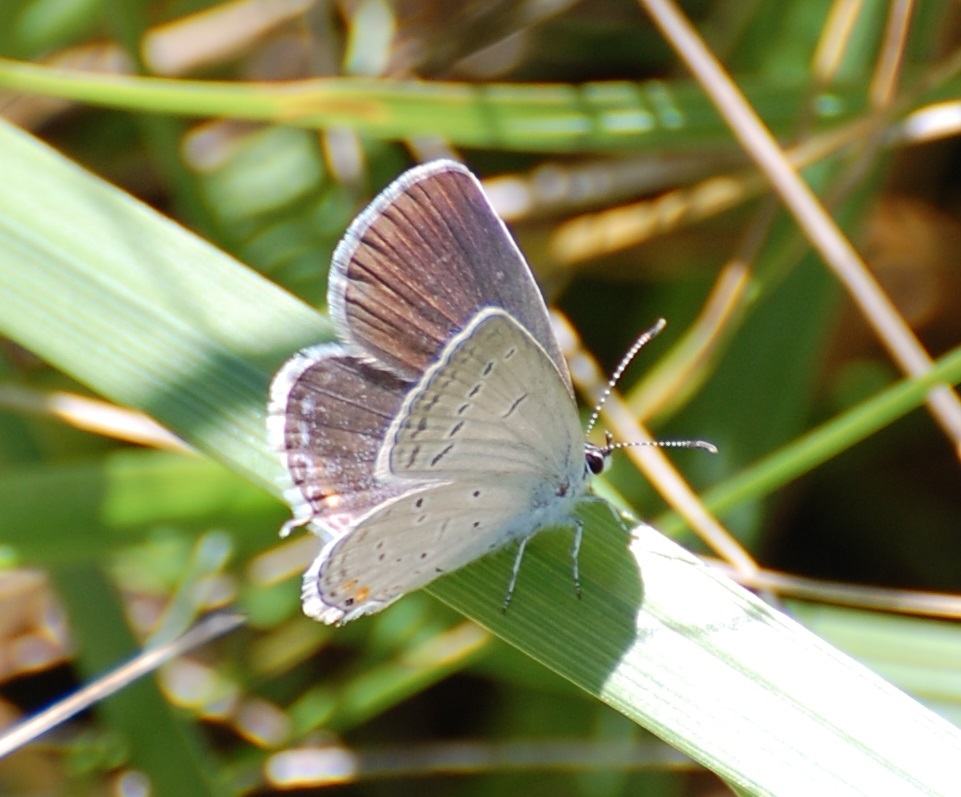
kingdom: Animalia
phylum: Arthropoda
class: Insecta
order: Lepidoptera
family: Lycaenidae
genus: Elkalyce
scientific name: Elkalyce comyntas
